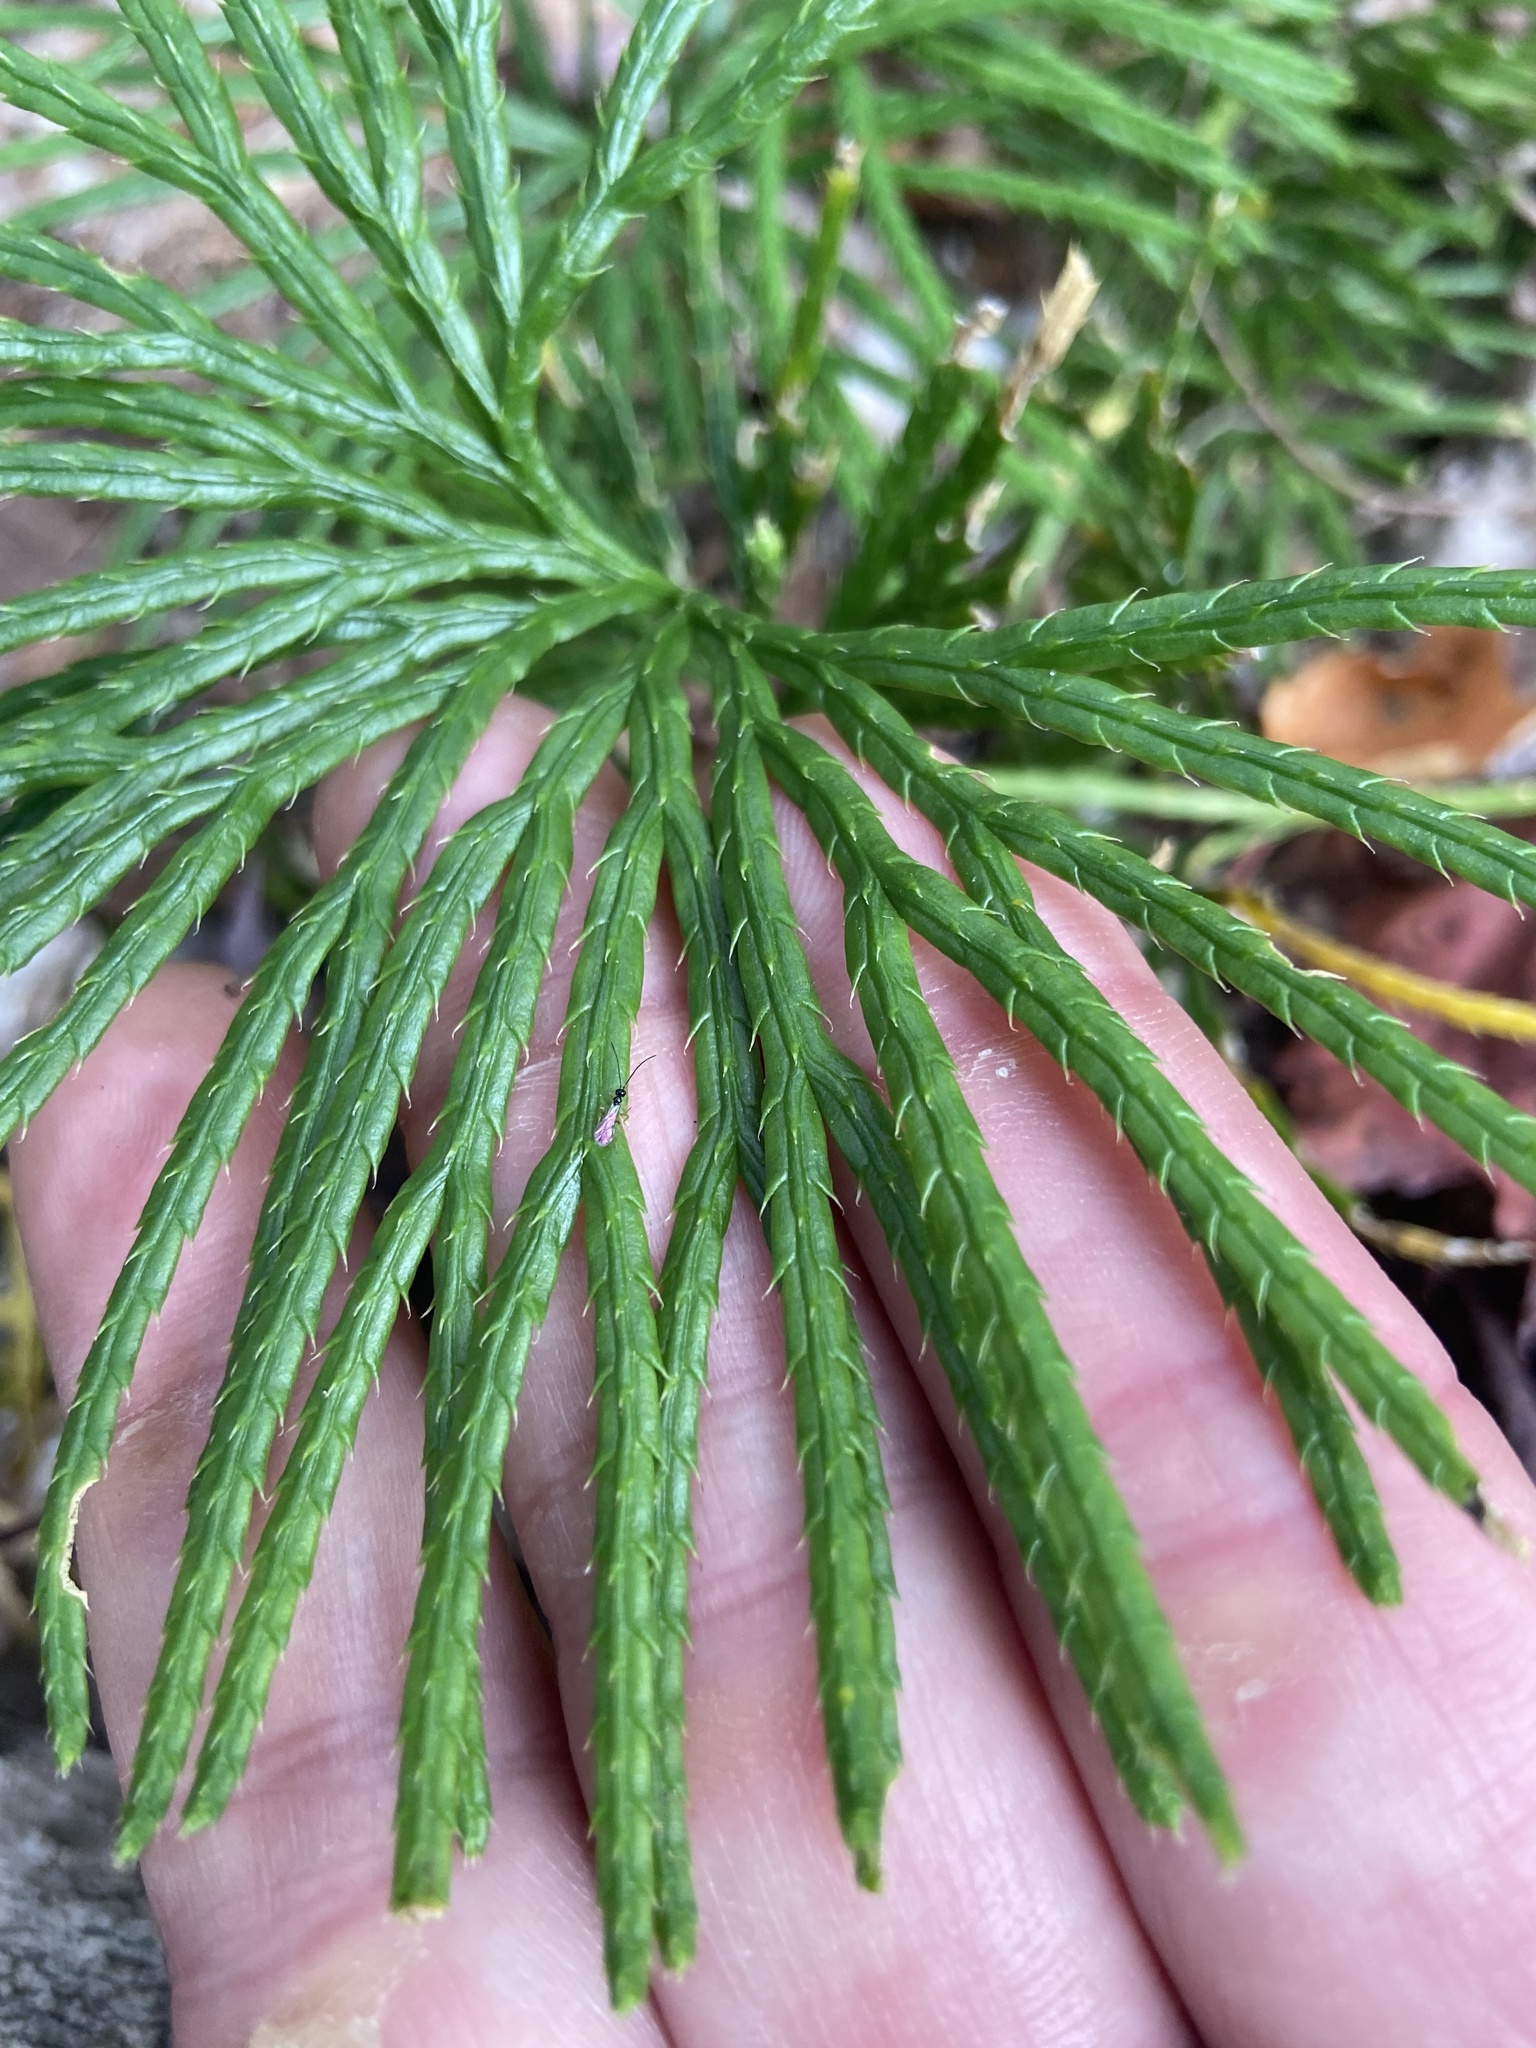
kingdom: Plantae
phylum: Tracheophyta
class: Lycopodiopsida
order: Lycopodiales
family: Lycopodiaceae
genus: Diphasiastrum
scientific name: Diphasiastrum digitatum
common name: Southern running-pine
